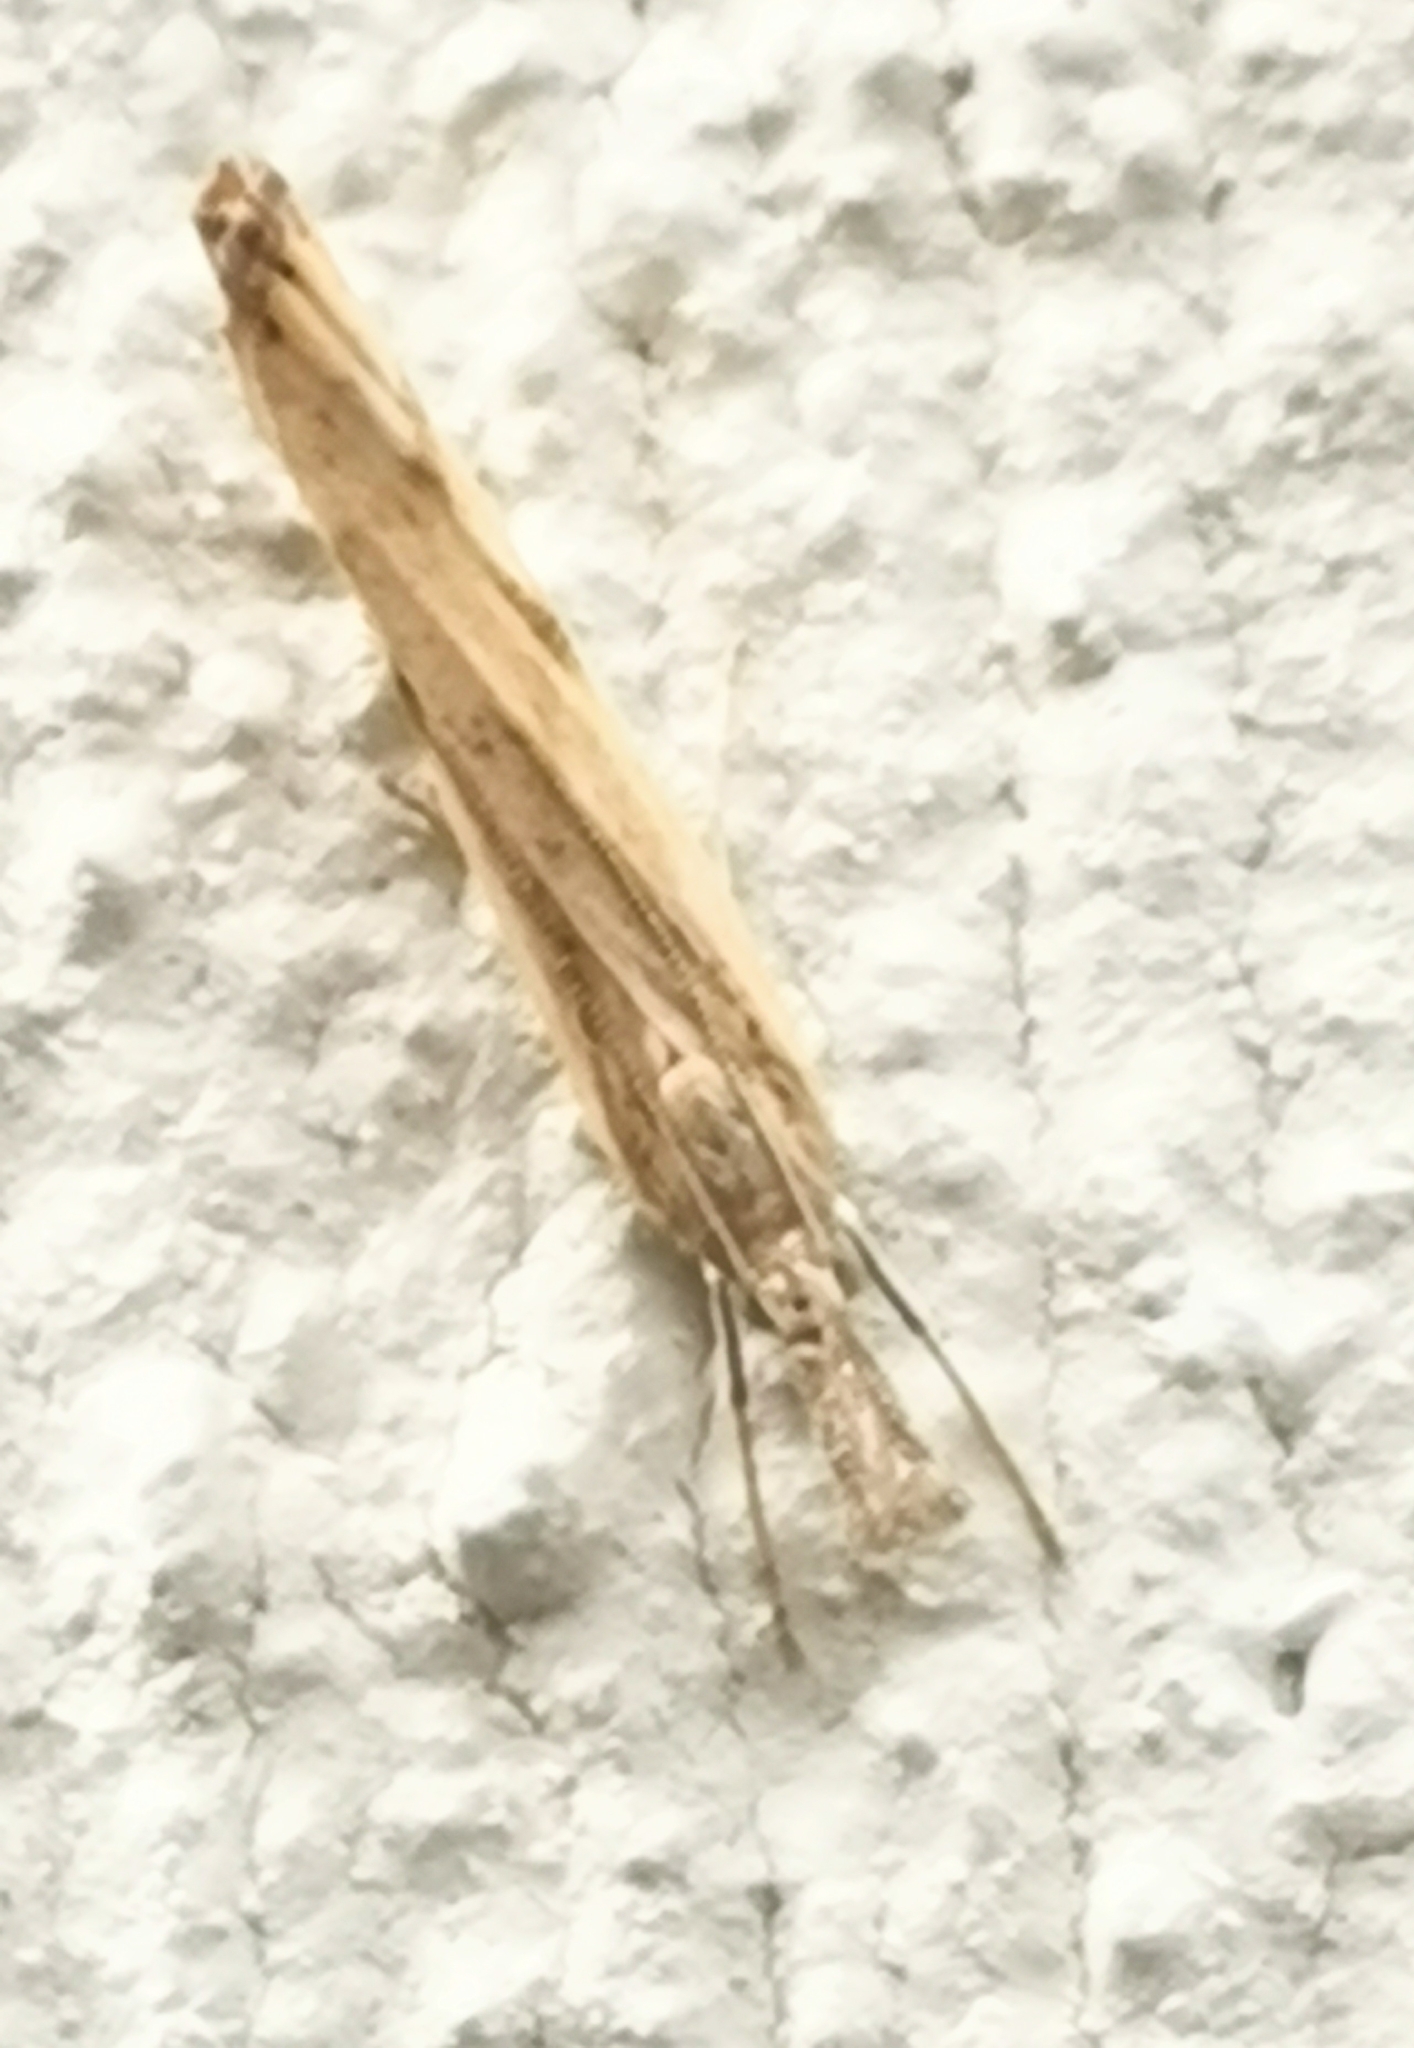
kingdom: Animalia
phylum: Arthropoda
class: Insecta
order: Lepidoptera
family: Crambidae
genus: Agriphila
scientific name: Agriphila inquinatella
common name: Barred grass-veneer
